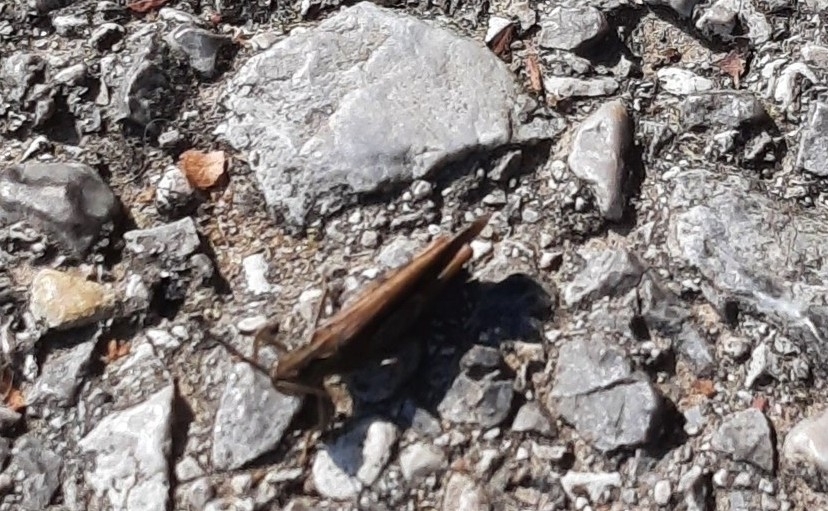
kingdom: Animalia
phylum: Arthropoda
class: Insecta
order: Orthoptera
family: Acrididae
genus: Glyptobothrus
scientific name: Glyptobothrus
